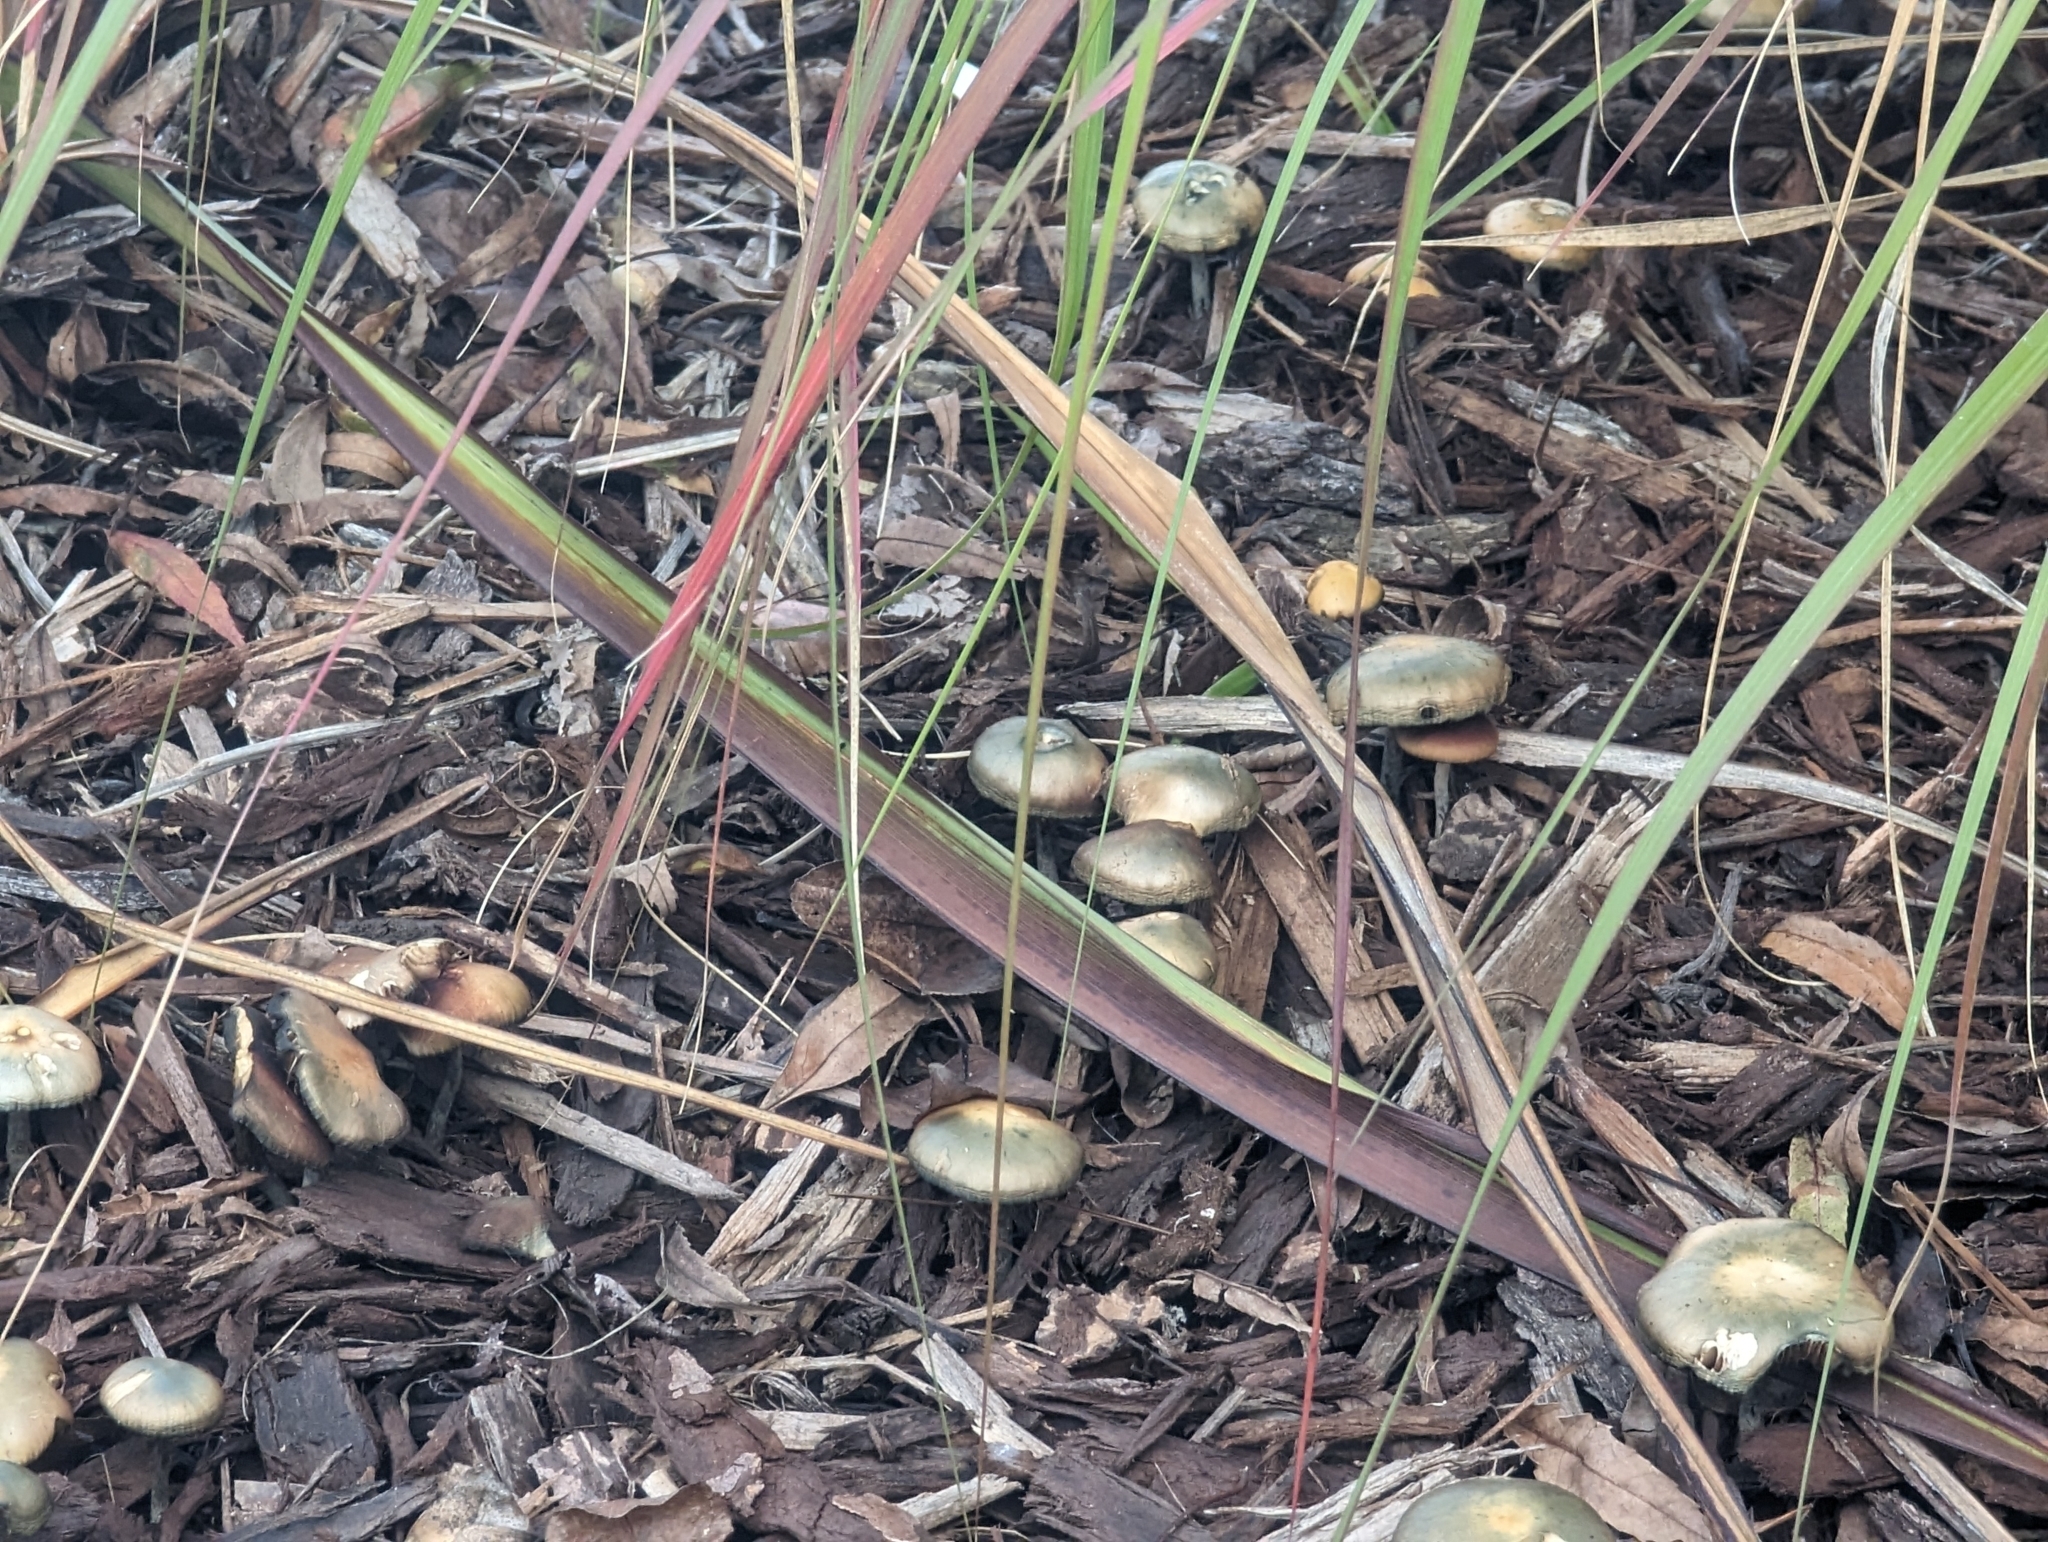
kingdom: Fungi
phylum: Basidiomycota
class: Agaricomycetes
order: Agaricales
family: Hymenogastraceae
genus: Psilocybe
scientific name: Psilocybe allenii
